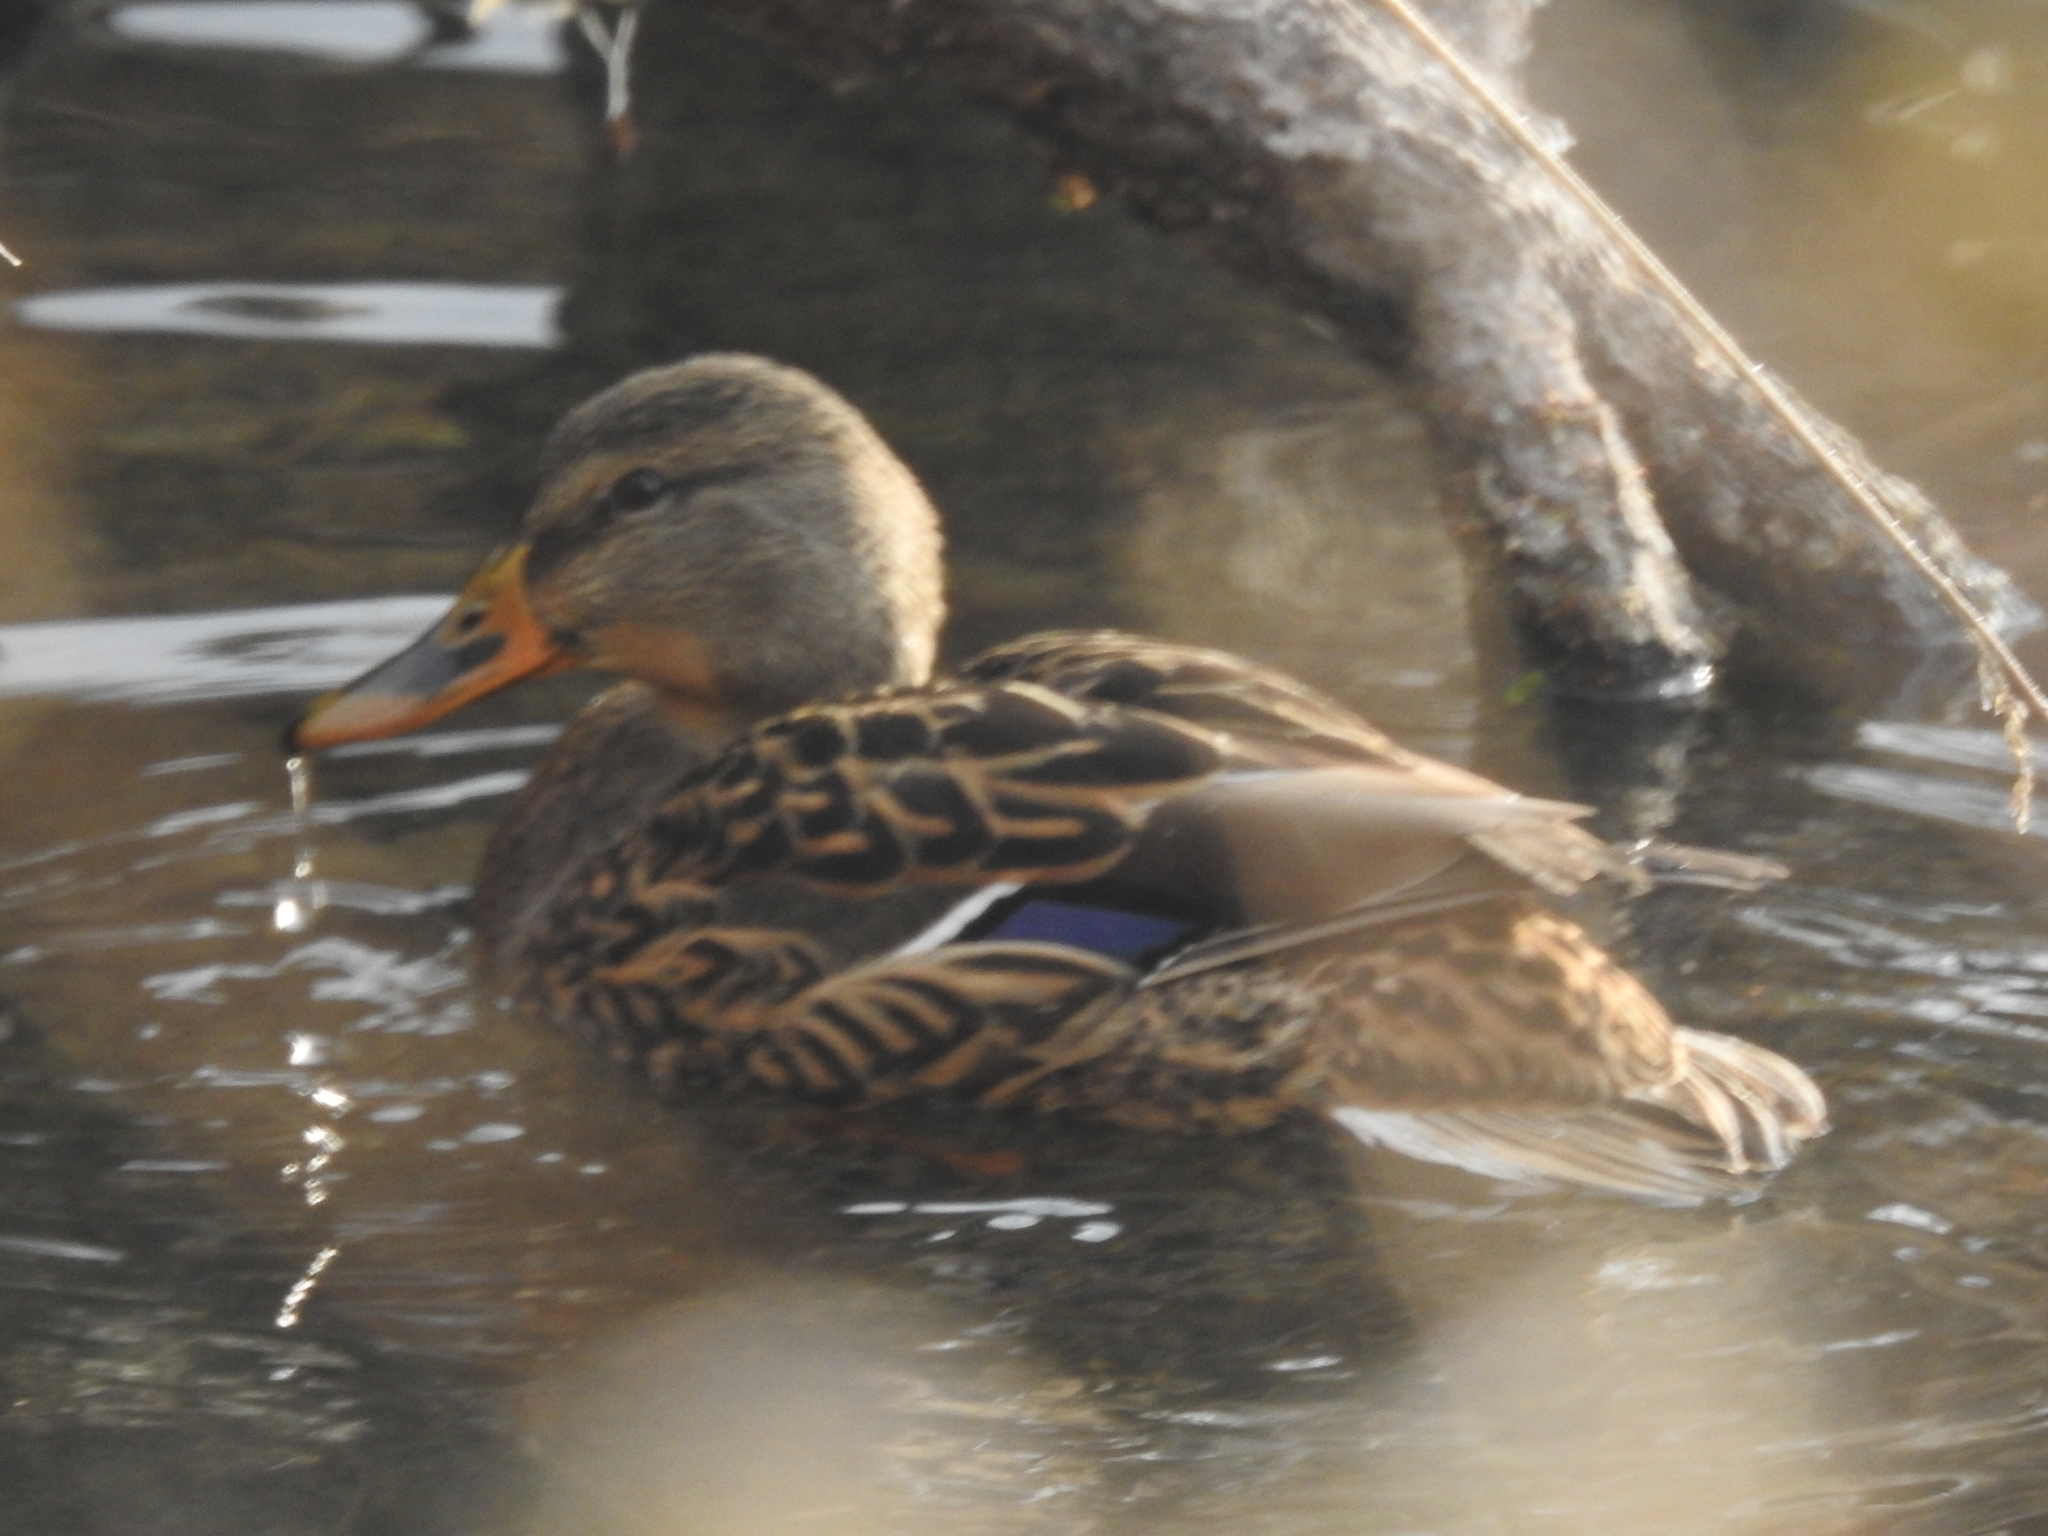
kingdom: Animalia
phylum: Chordata
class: Aves
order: Anseriformes
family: Anatidae
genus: Anas
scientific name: Anas platyrhynchos
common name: Mallard
